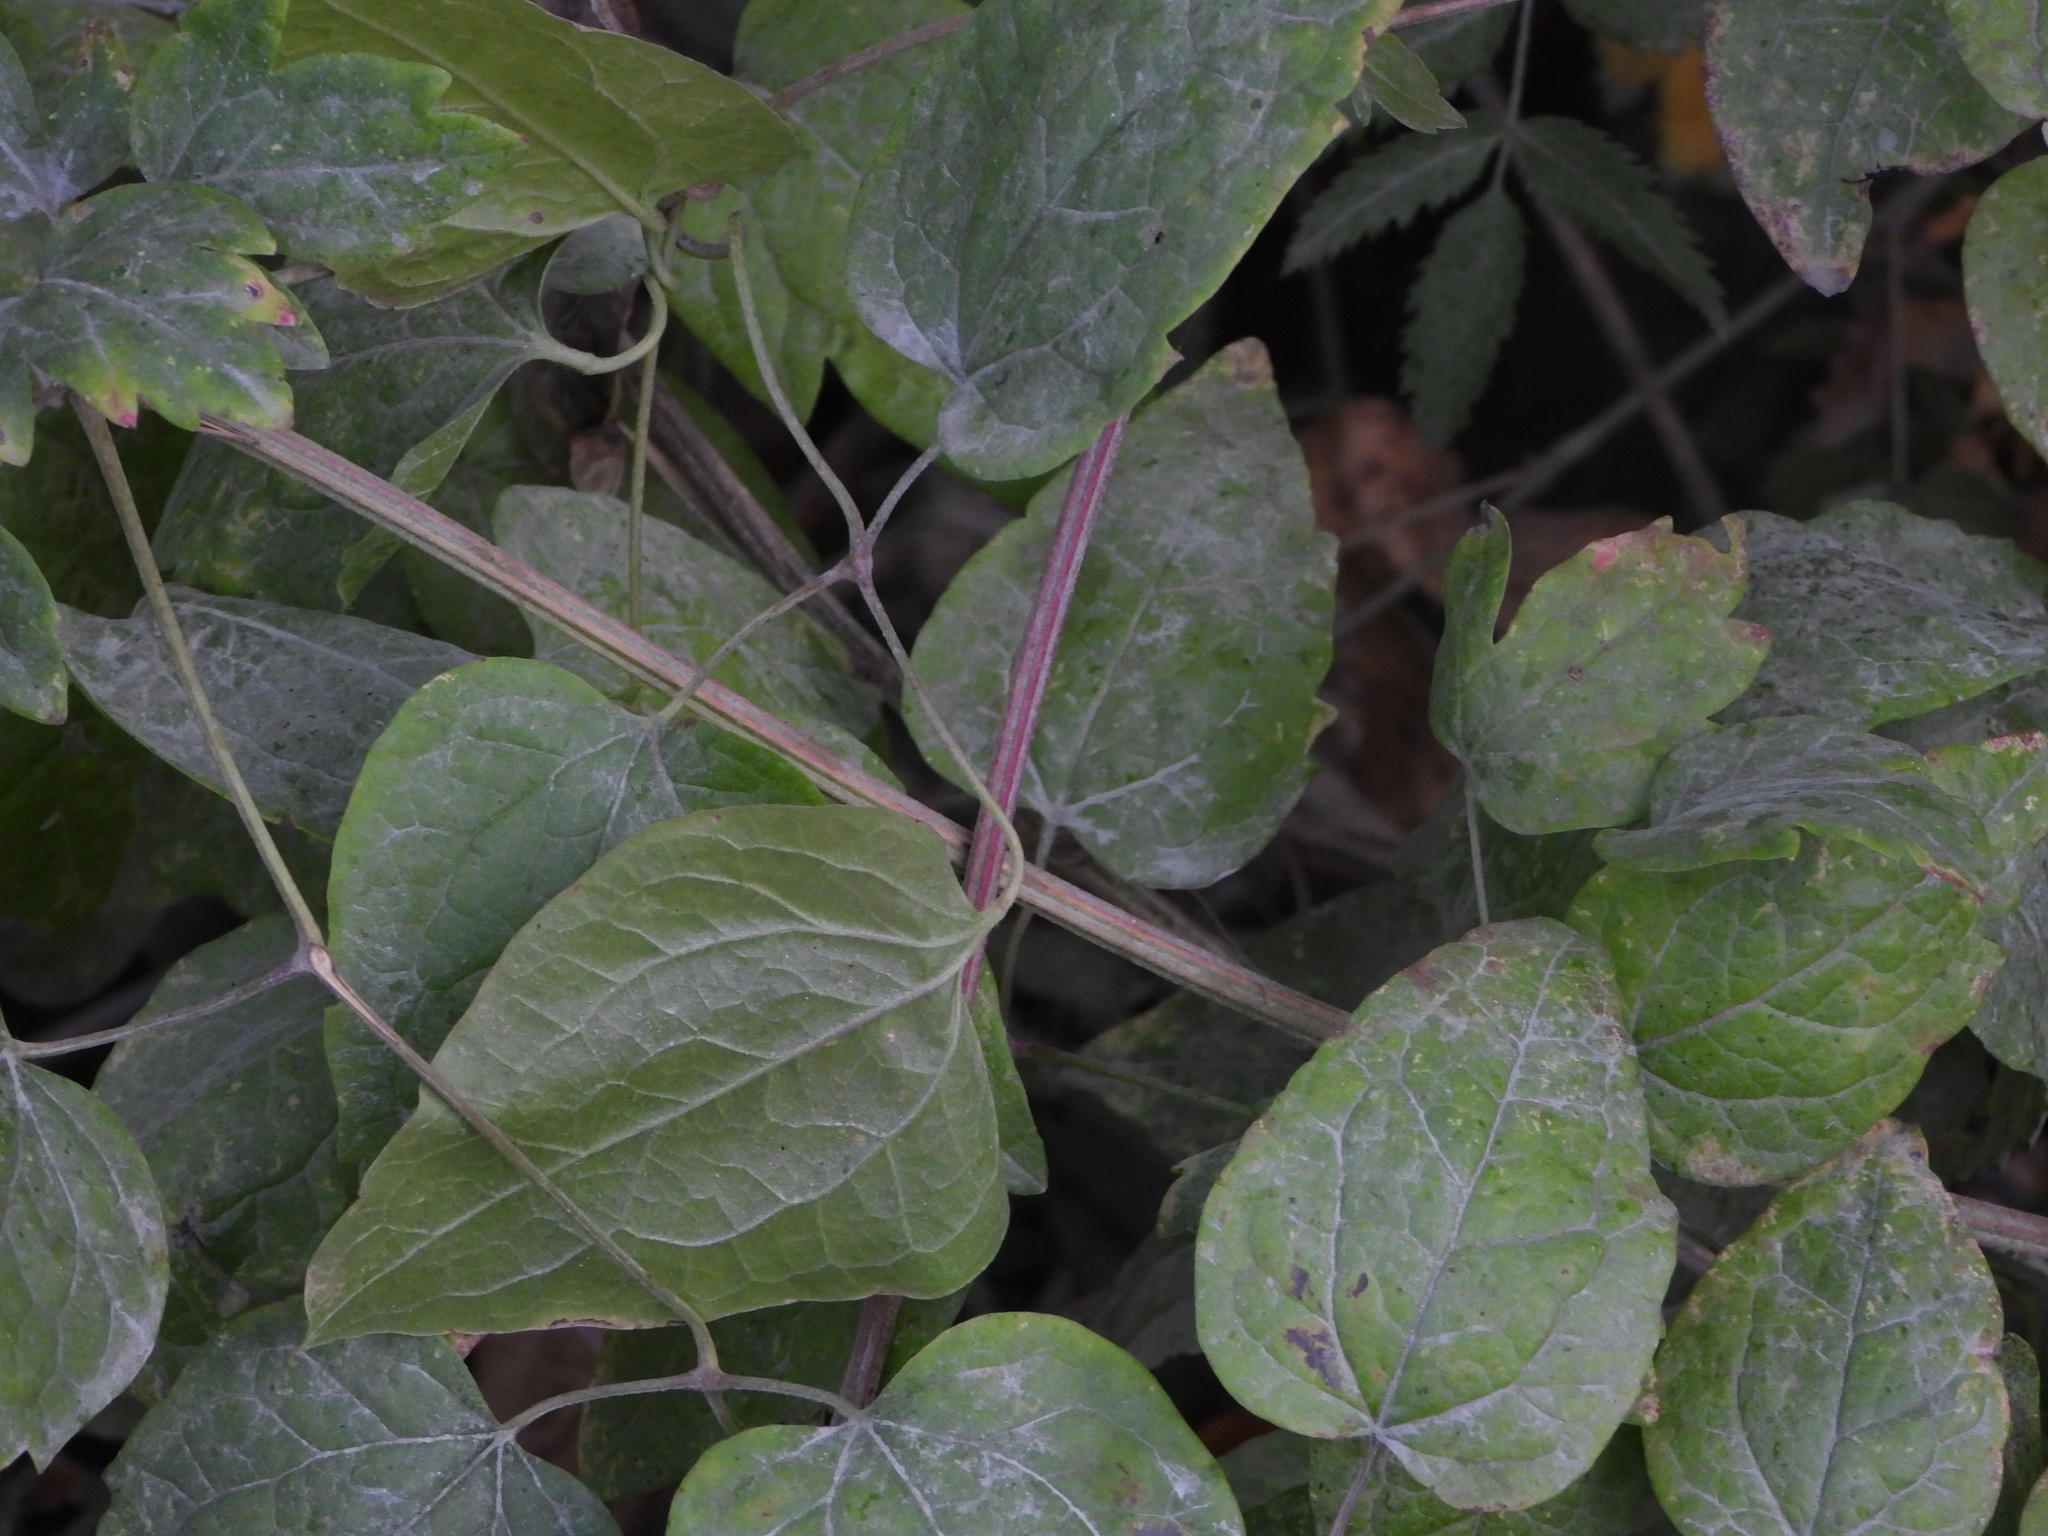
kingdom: Plantae
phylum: Tracheophyta
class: Magnoliopsida
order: Ranunculales
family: Ranunculaceae
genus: Clematis
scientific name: Clematis vitalba
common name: Evergreen clematis
